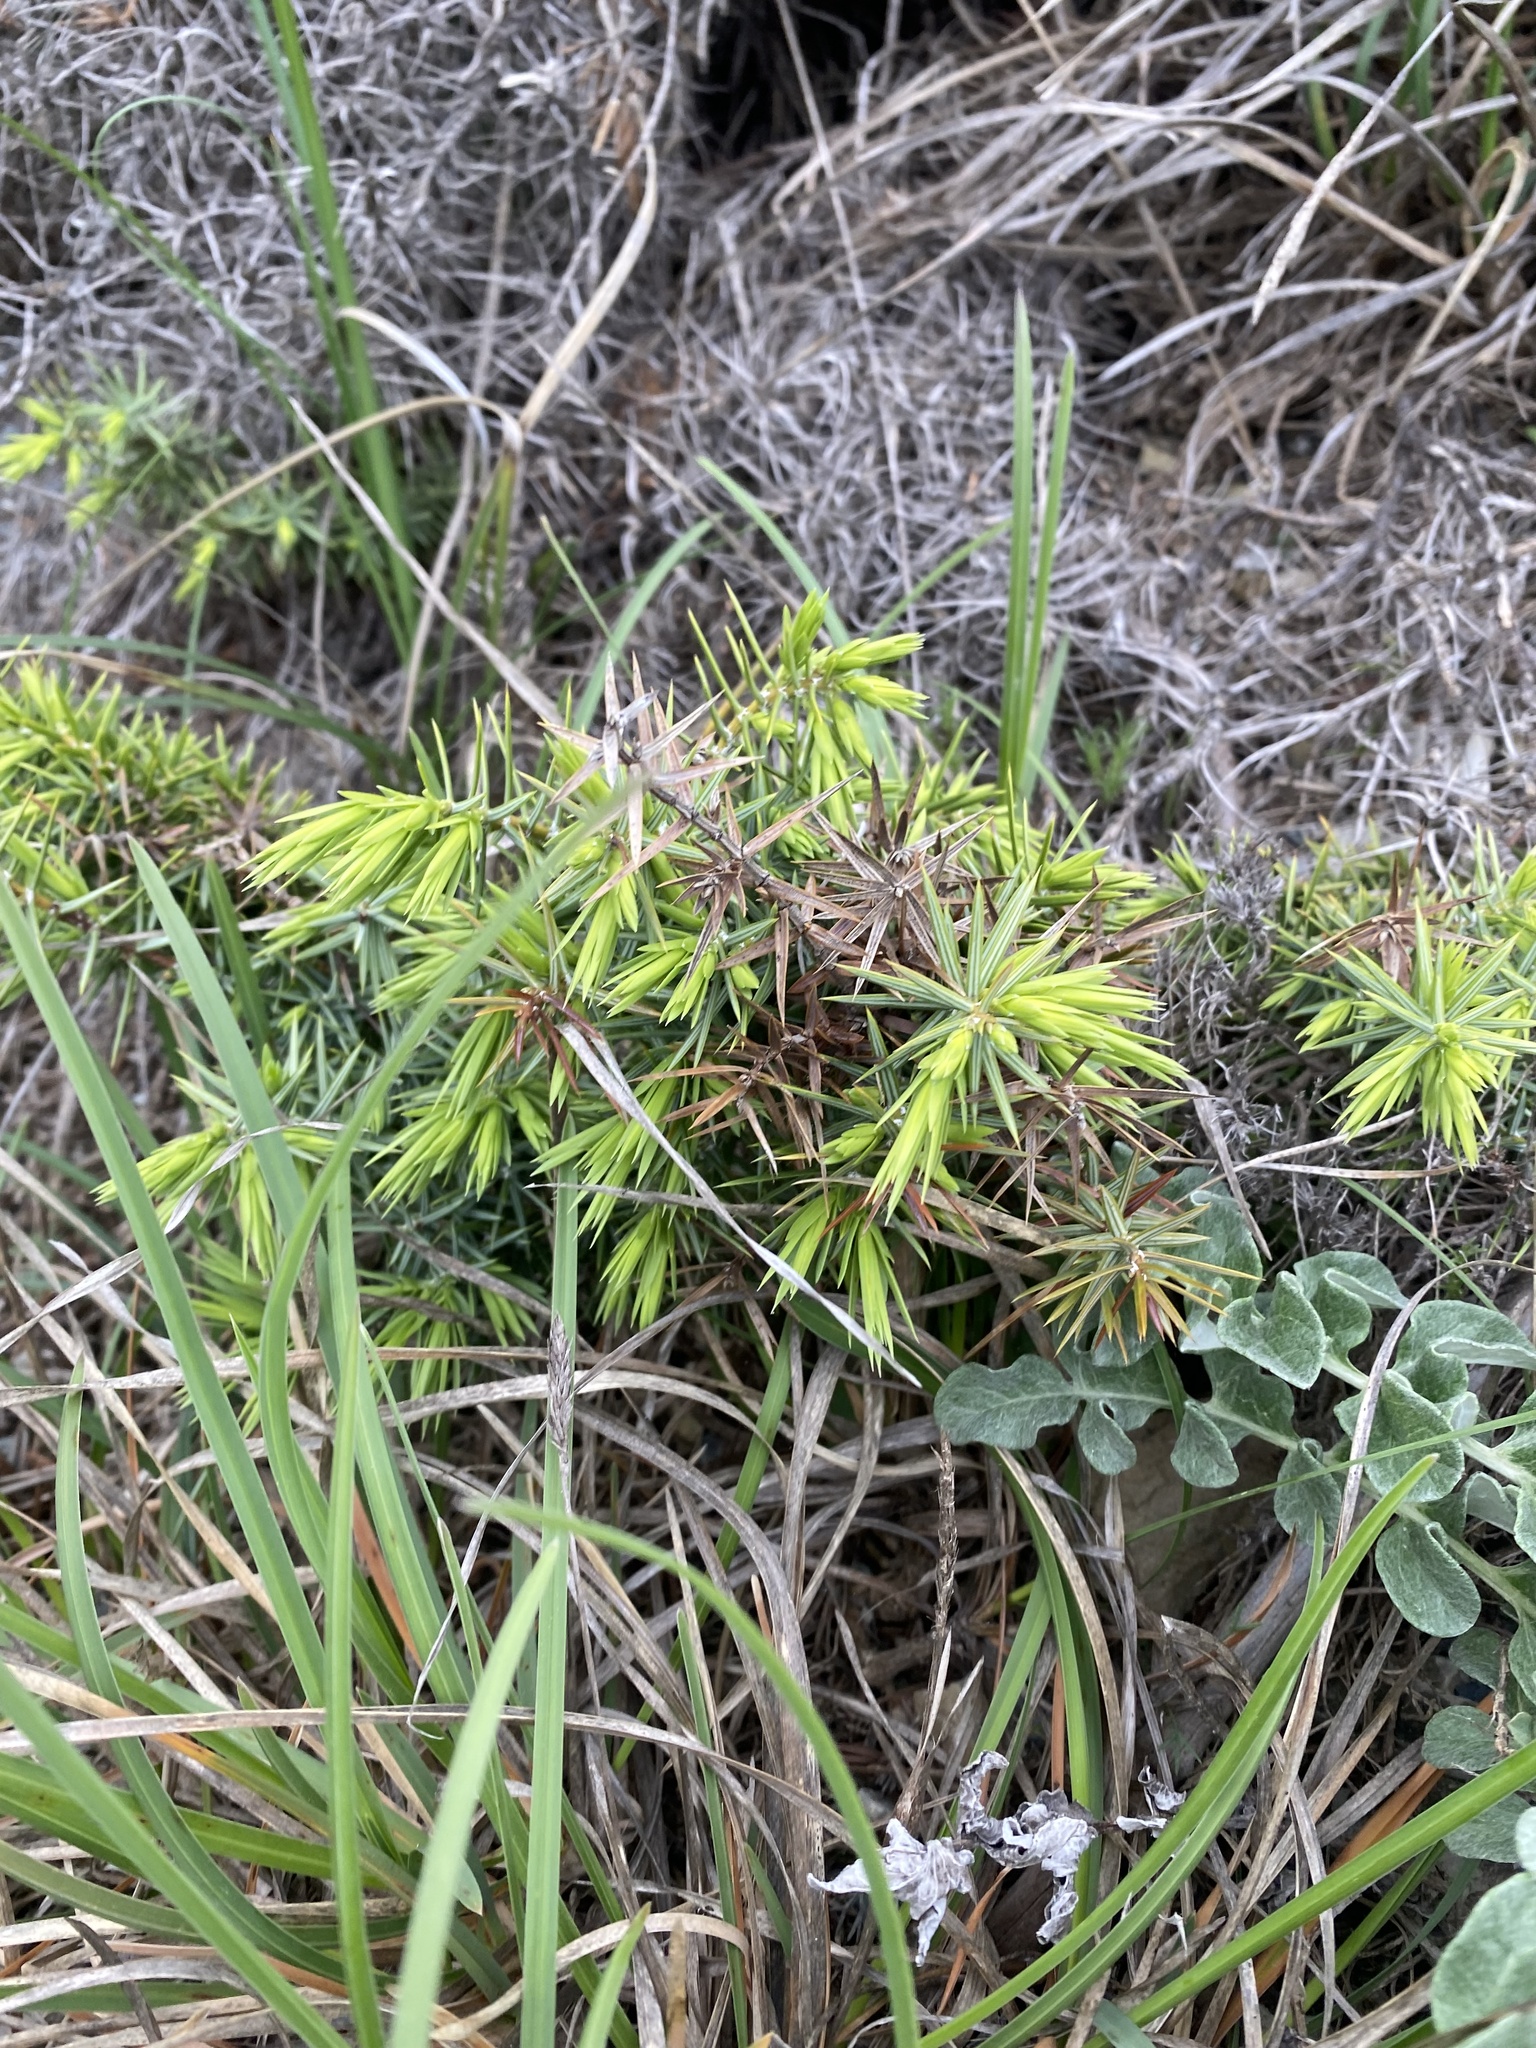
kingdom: Plantae
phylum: Tracheophyta
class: Pinopsida
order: Pinales
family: Cupressaceae
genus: Juniperus
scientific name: Juniperus oxycedrus
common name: Prickly juniper
